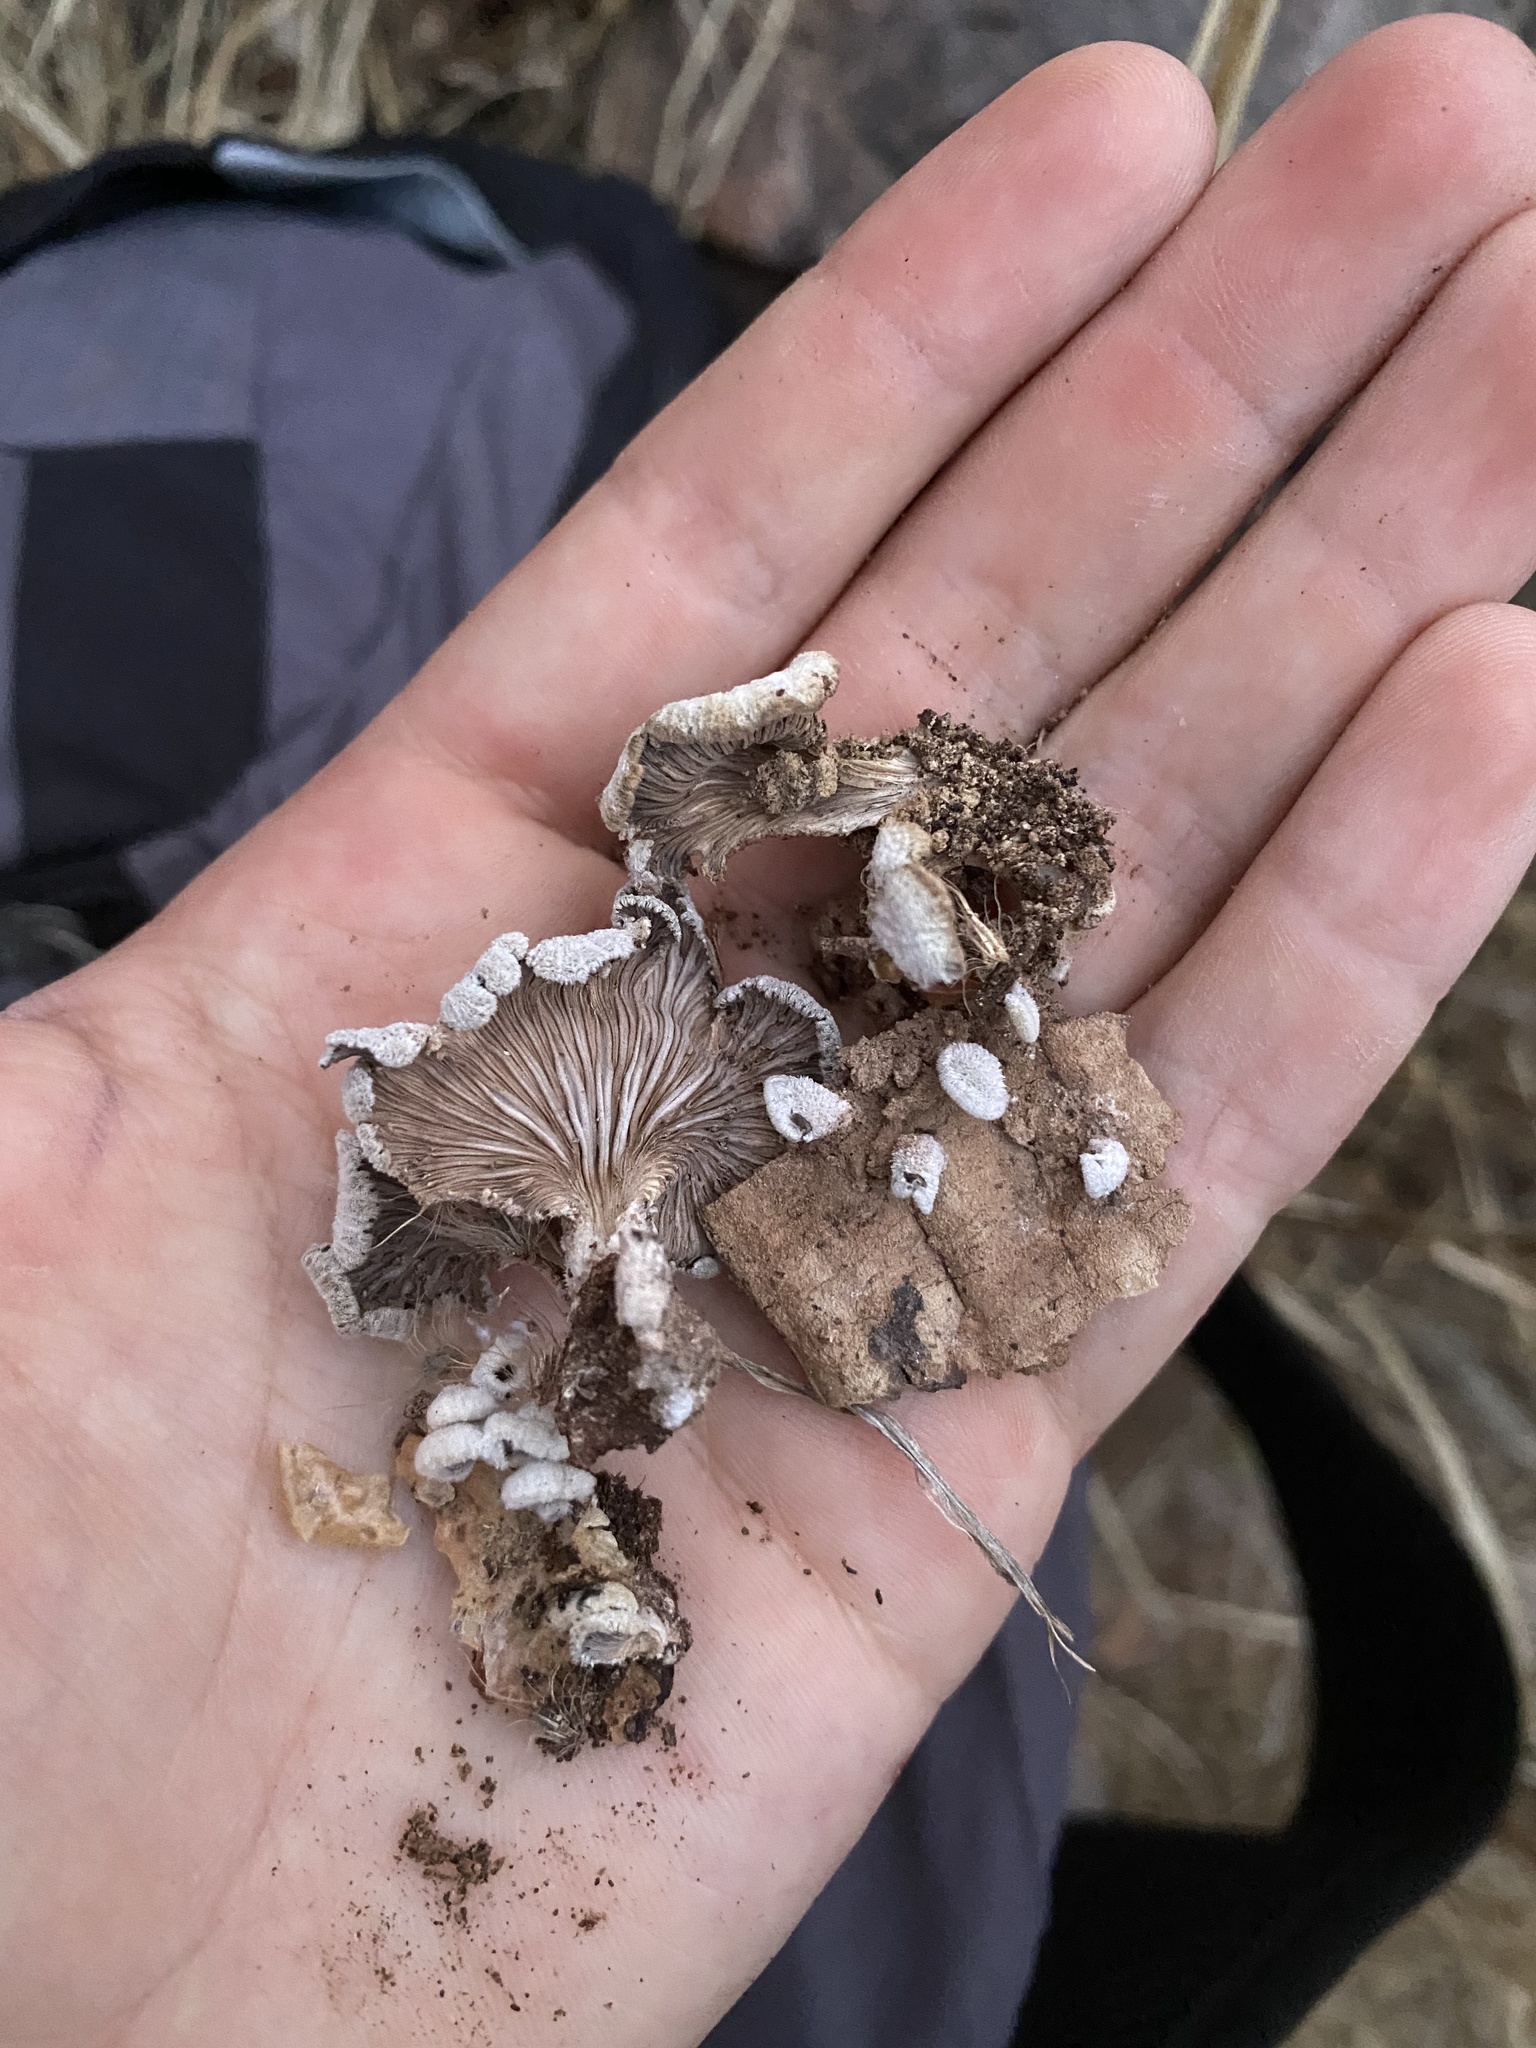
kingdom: Fungi
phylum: Basidiomycota
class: Agaricomycetes
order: Agaricales
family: Schizophyllaceae
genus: Schizophyllum
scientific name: Schizophyllum commune
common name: Common porecrust
